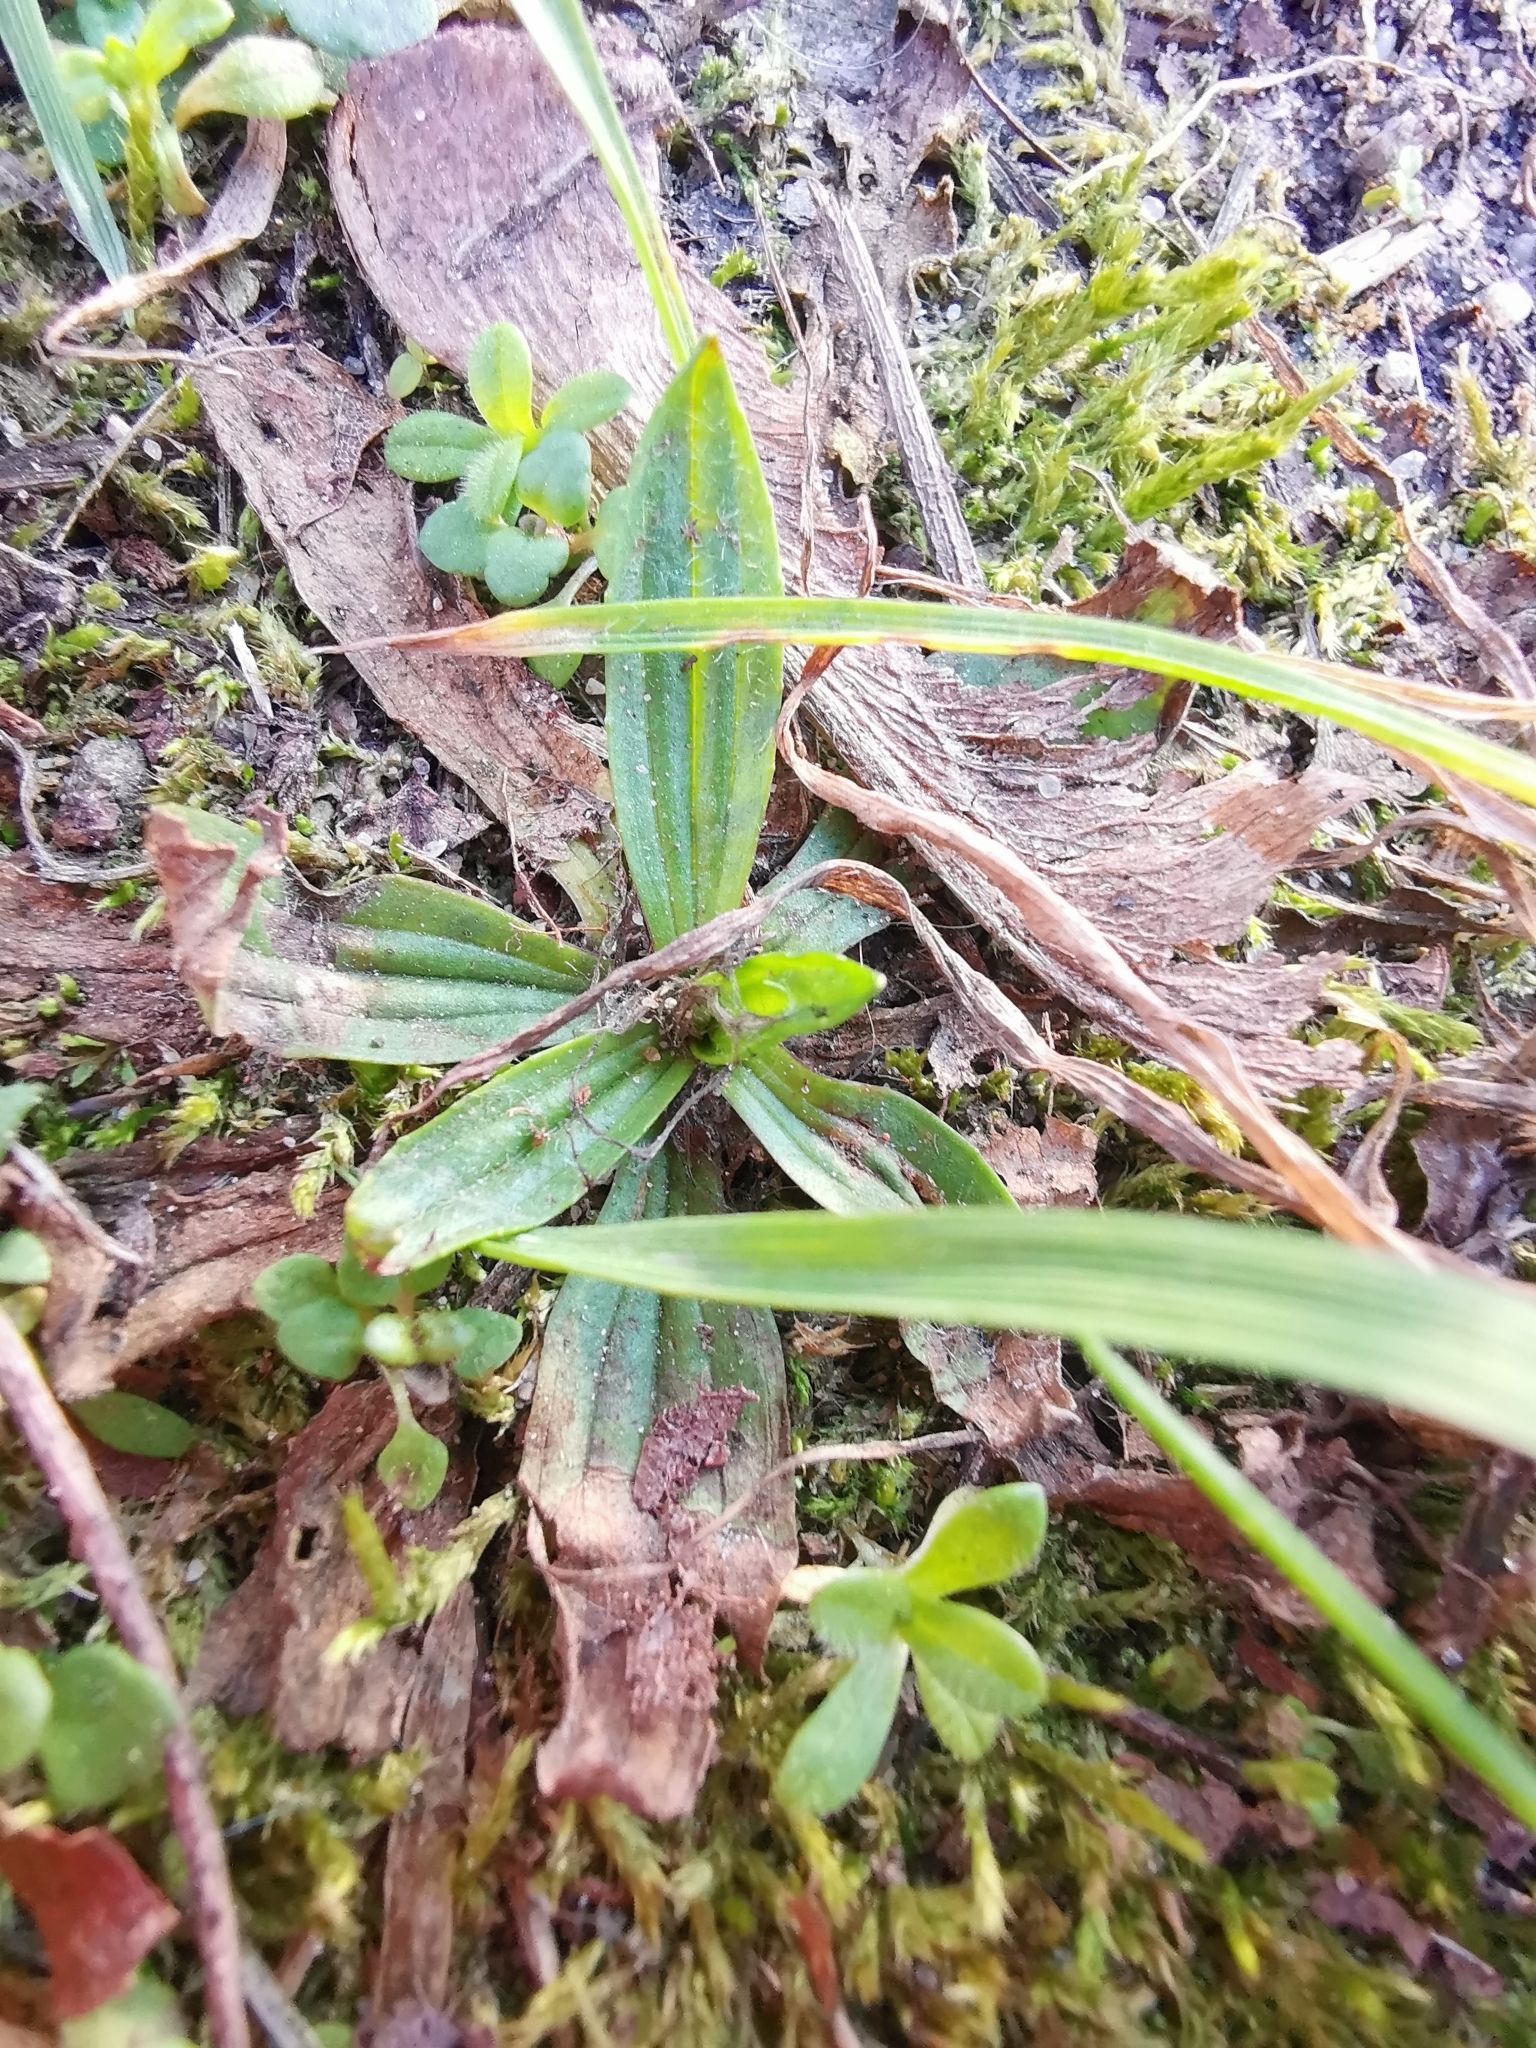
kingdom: Plantae
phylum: Tracheophyta
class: Magnoliopsida
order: Lamiales
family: Plantaginaceae
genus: Plantago
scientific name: Plantago lanceolata
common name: Ribwort plantain
